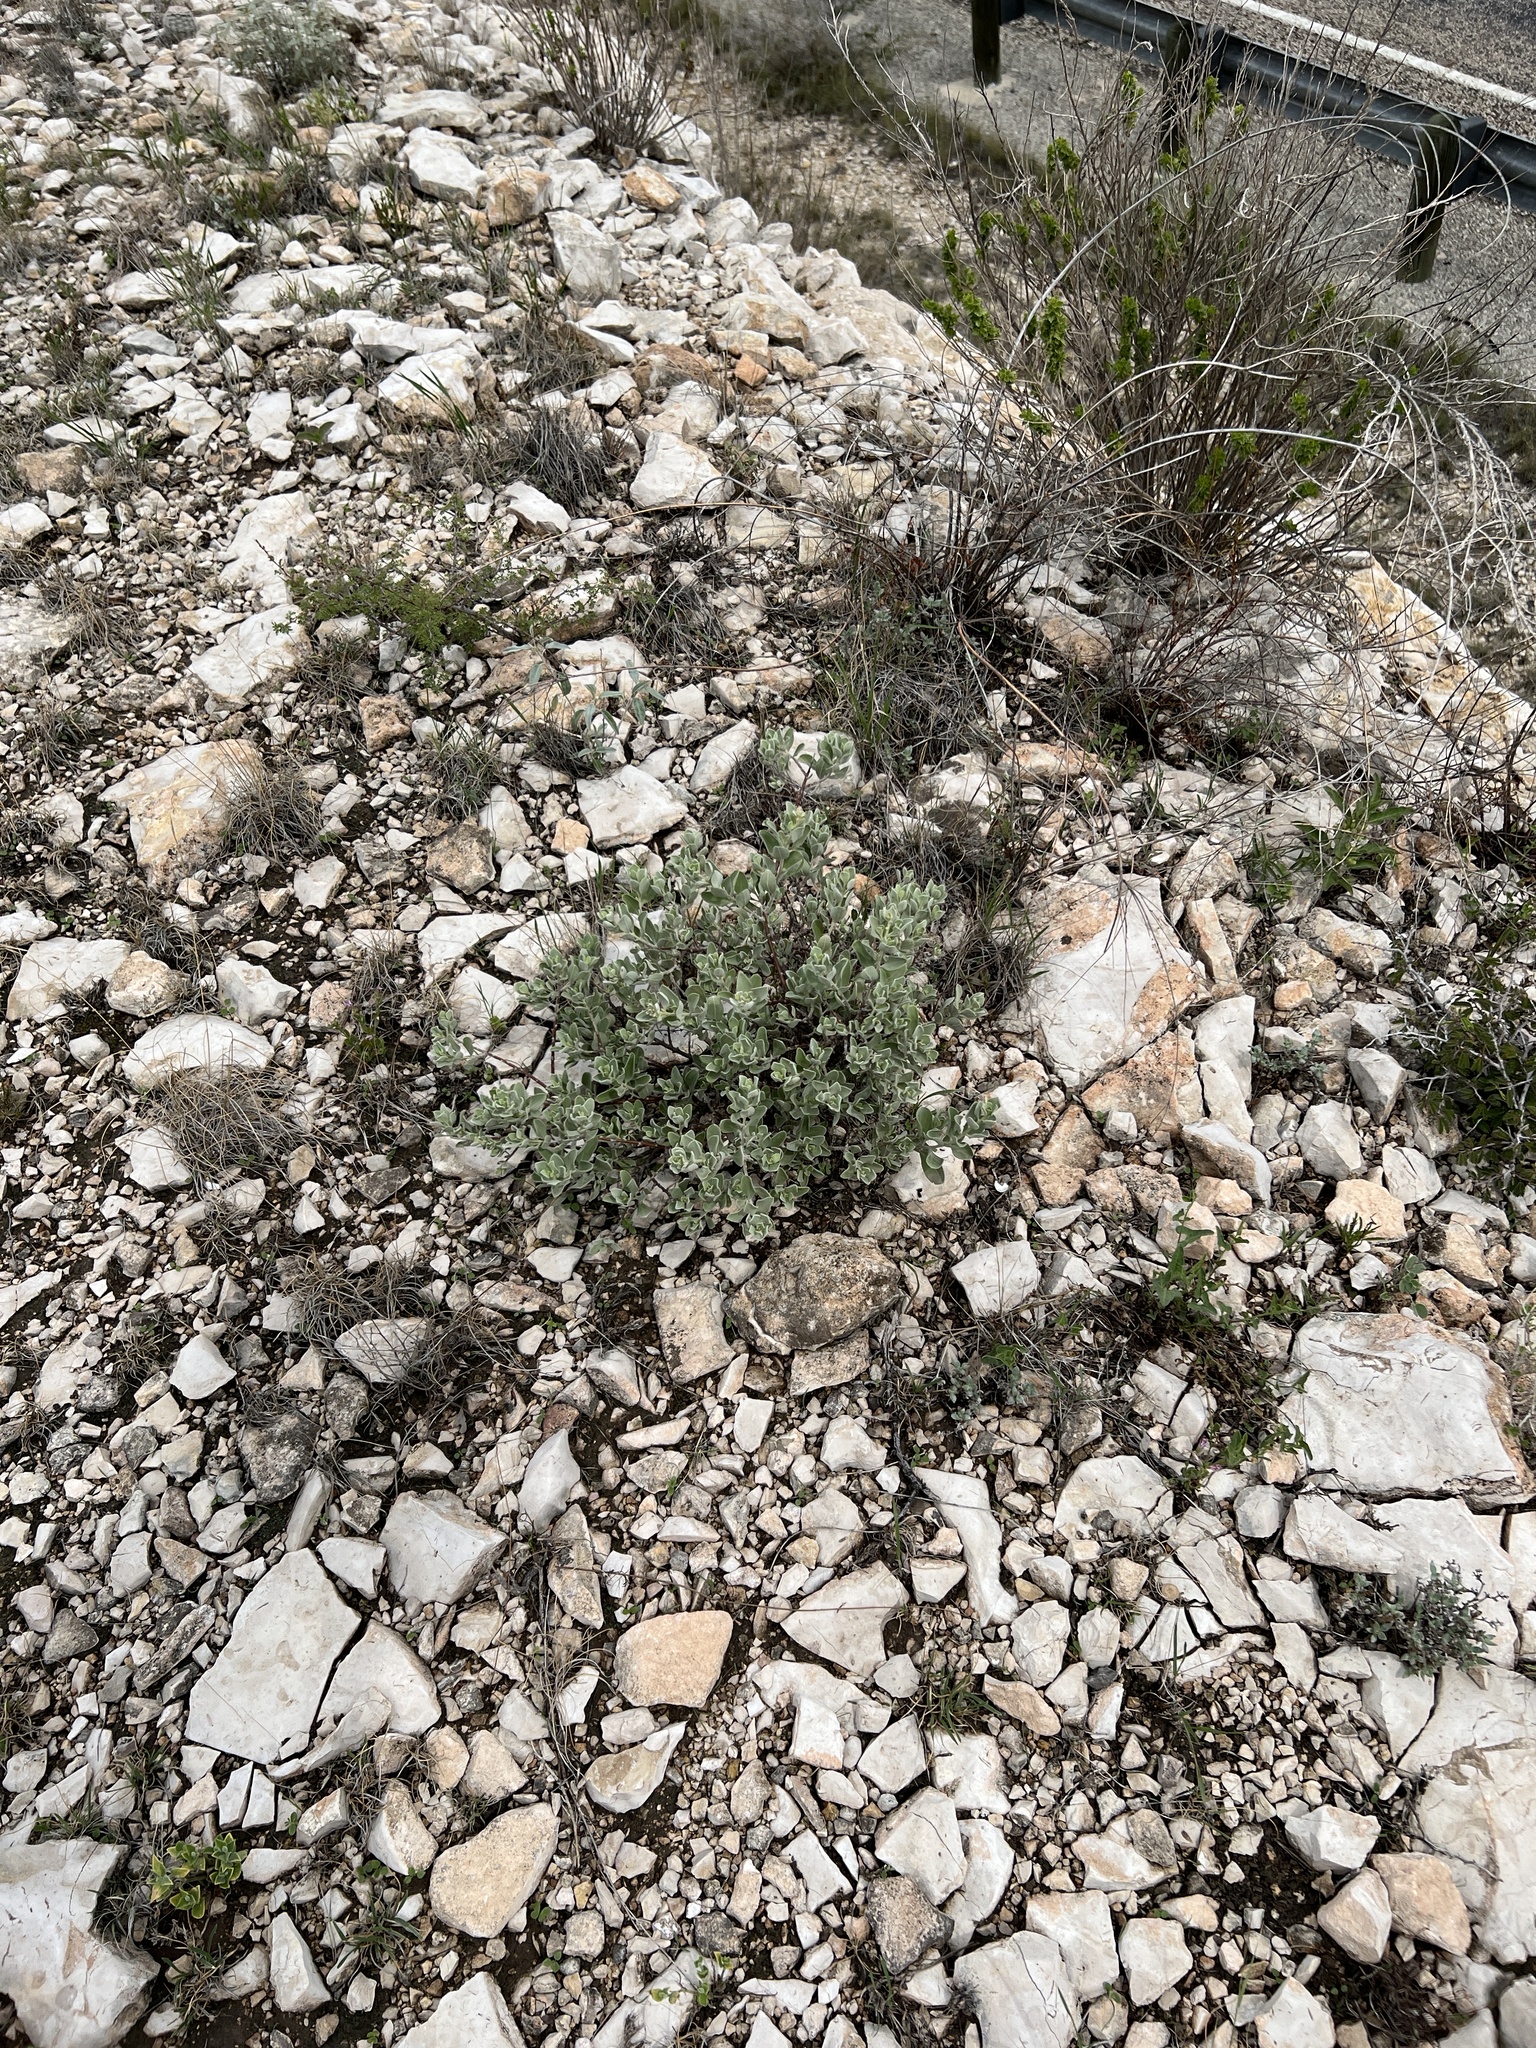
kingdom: Plantae
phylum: Tracheophyta
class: Magnoliopsida
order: Lamiales
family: Scrophulariaceae
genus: Leucophyllum
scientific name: Leucophyllum frutescens
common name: Texas silverleaf
